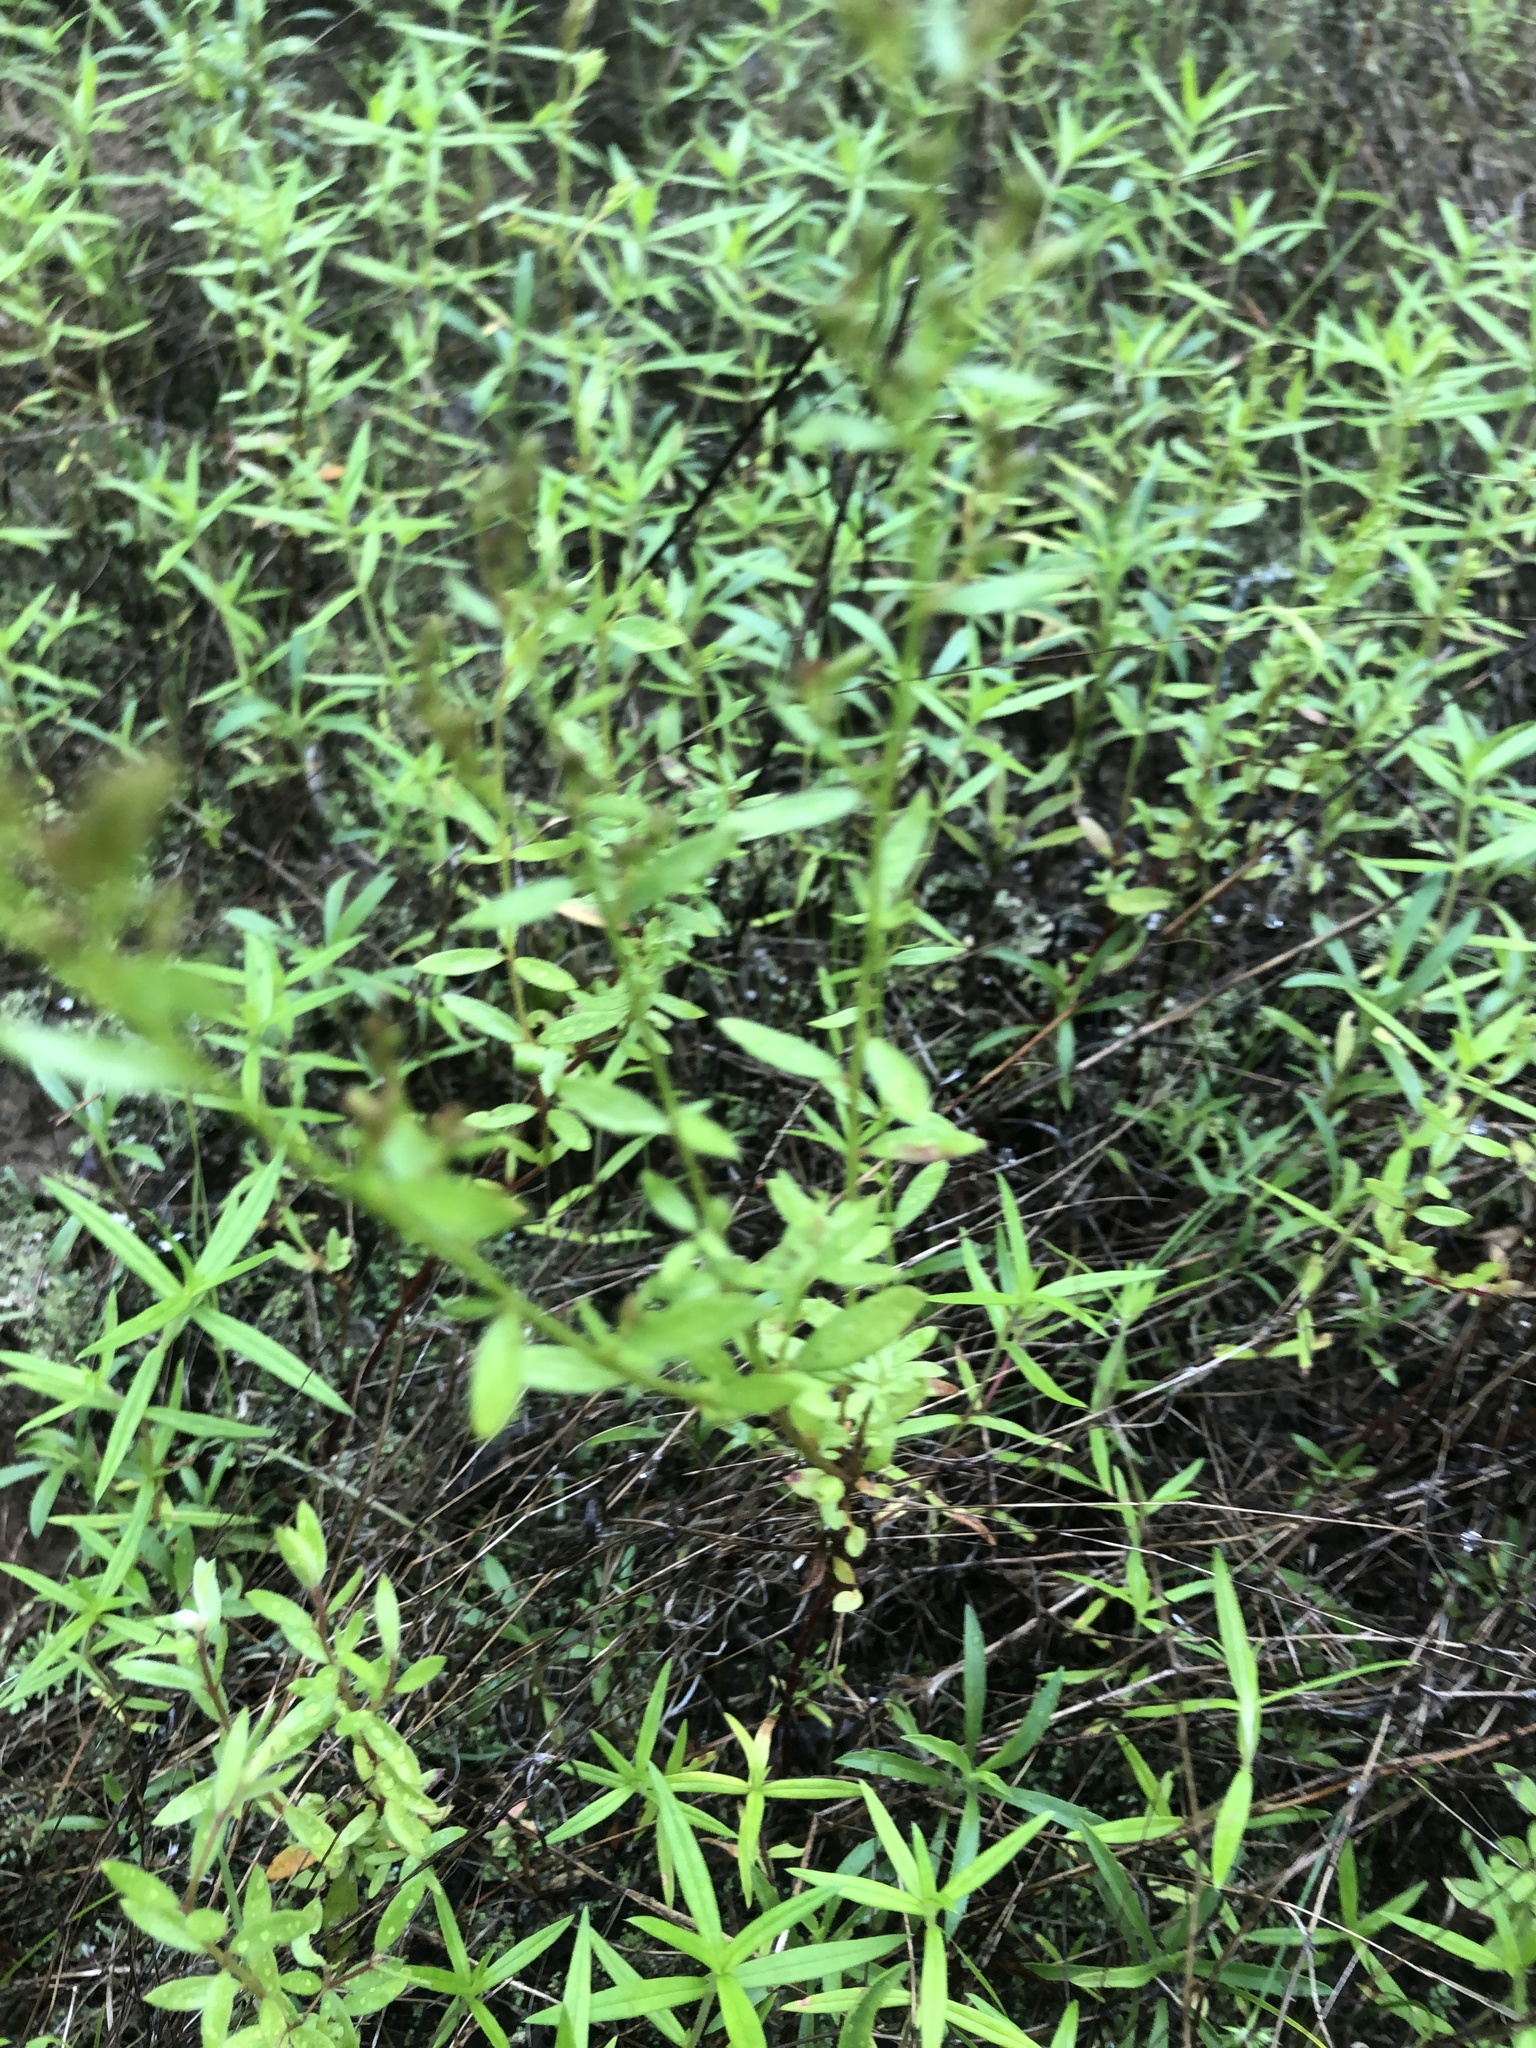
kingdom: Plantae
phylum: Tracheophyta
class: Magnoliopsida
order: Malvales
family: Cistaceae
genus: Lechea
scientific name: Lechea mucronata
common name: Hairy pinweed
